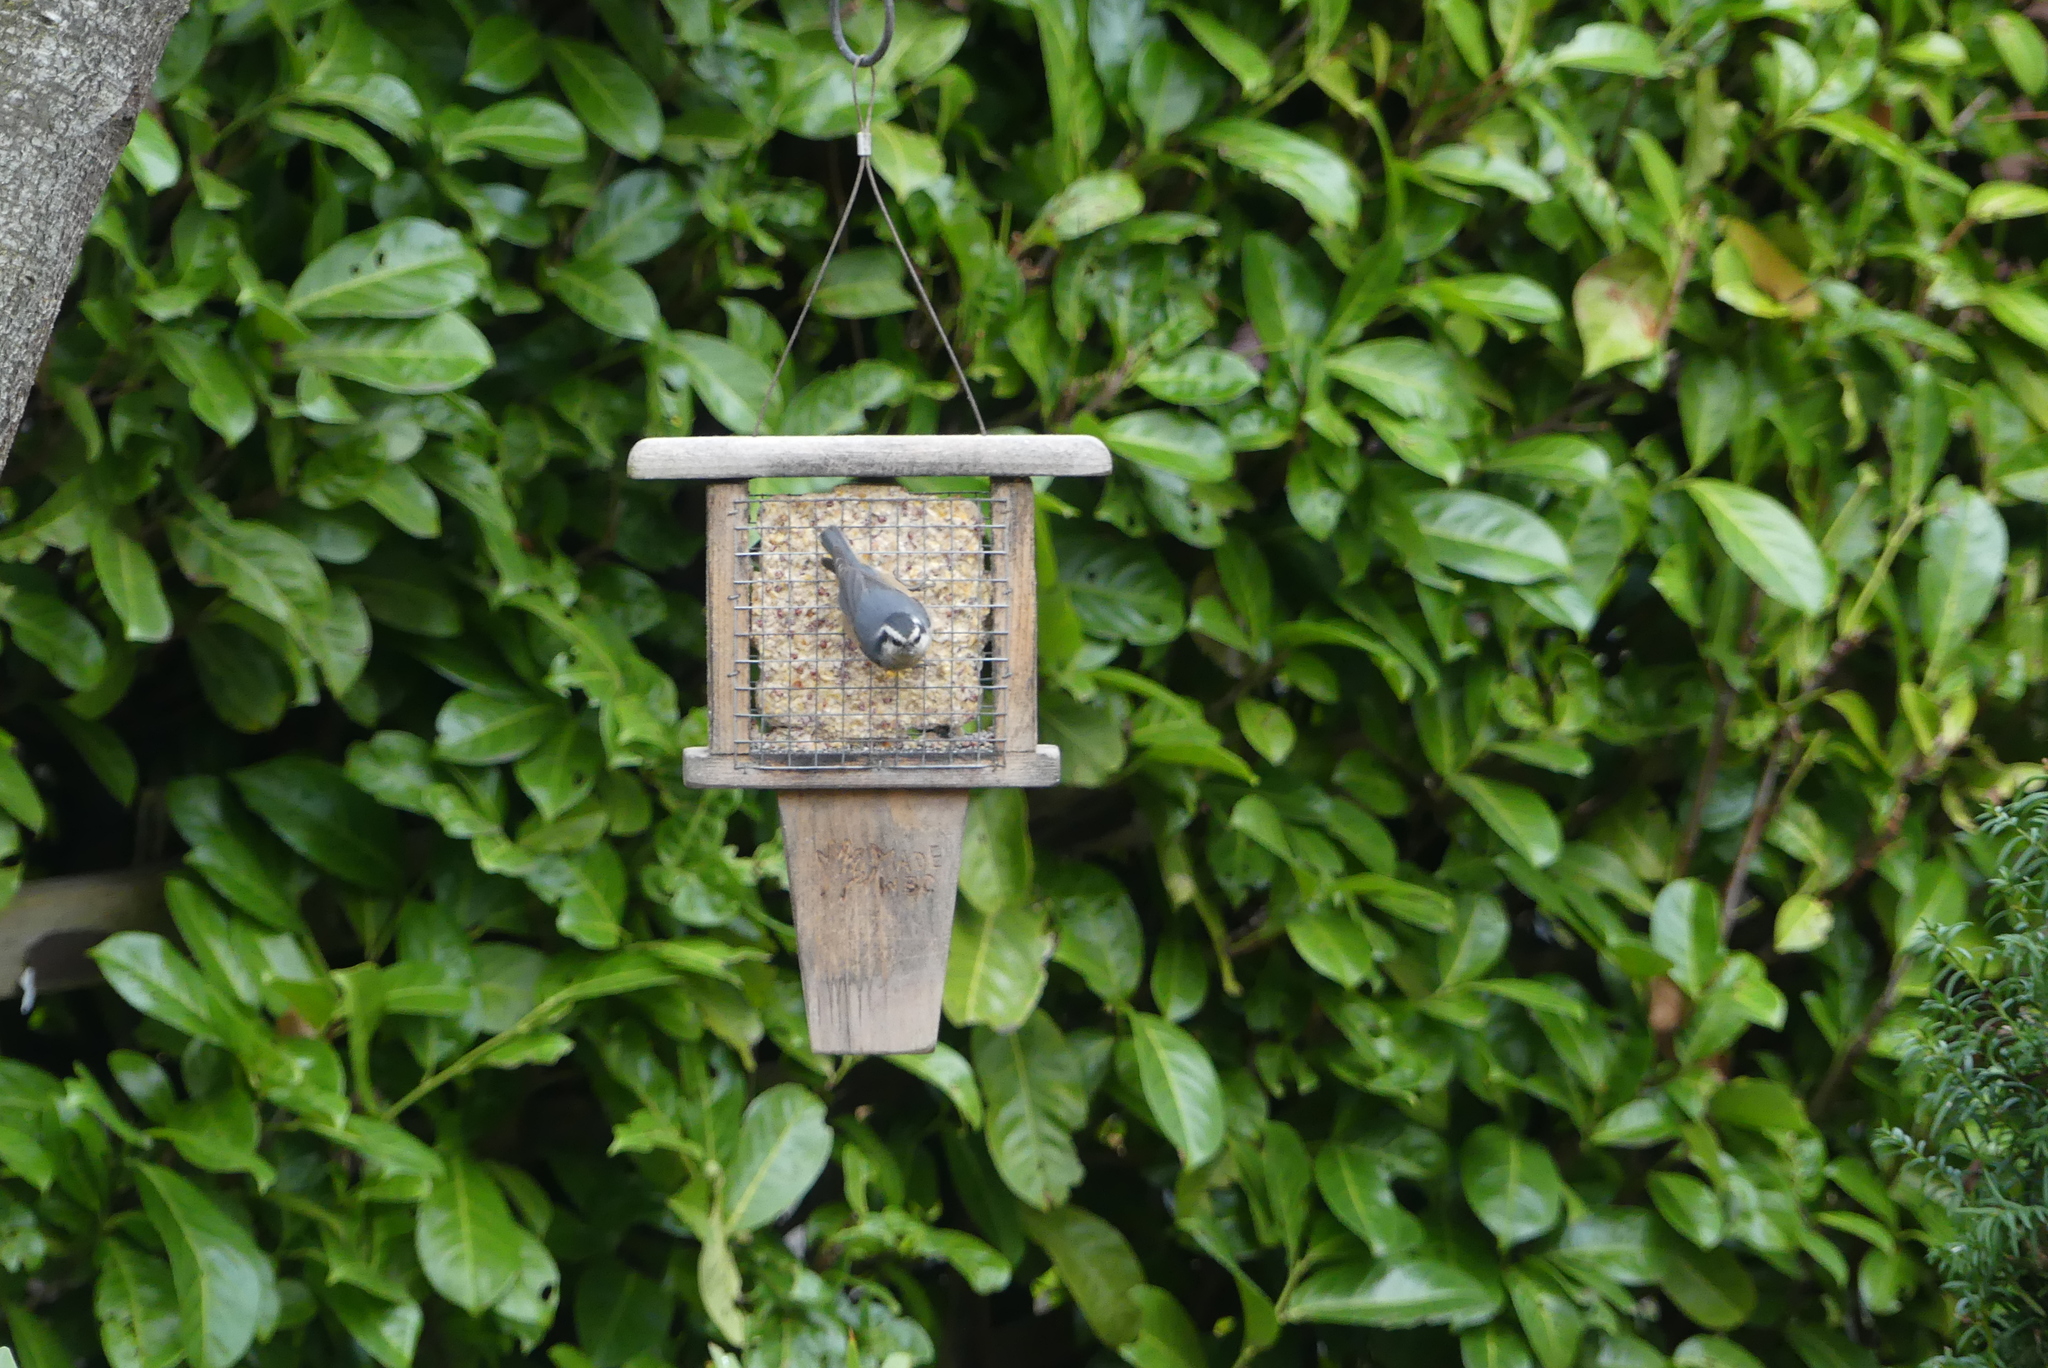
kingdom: Animalia
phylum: Chordata
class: Aves
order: Passeriformes
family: Sittidae
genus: Sitta
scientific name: Sitta canadensis
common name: Red-breasted nuthatch
